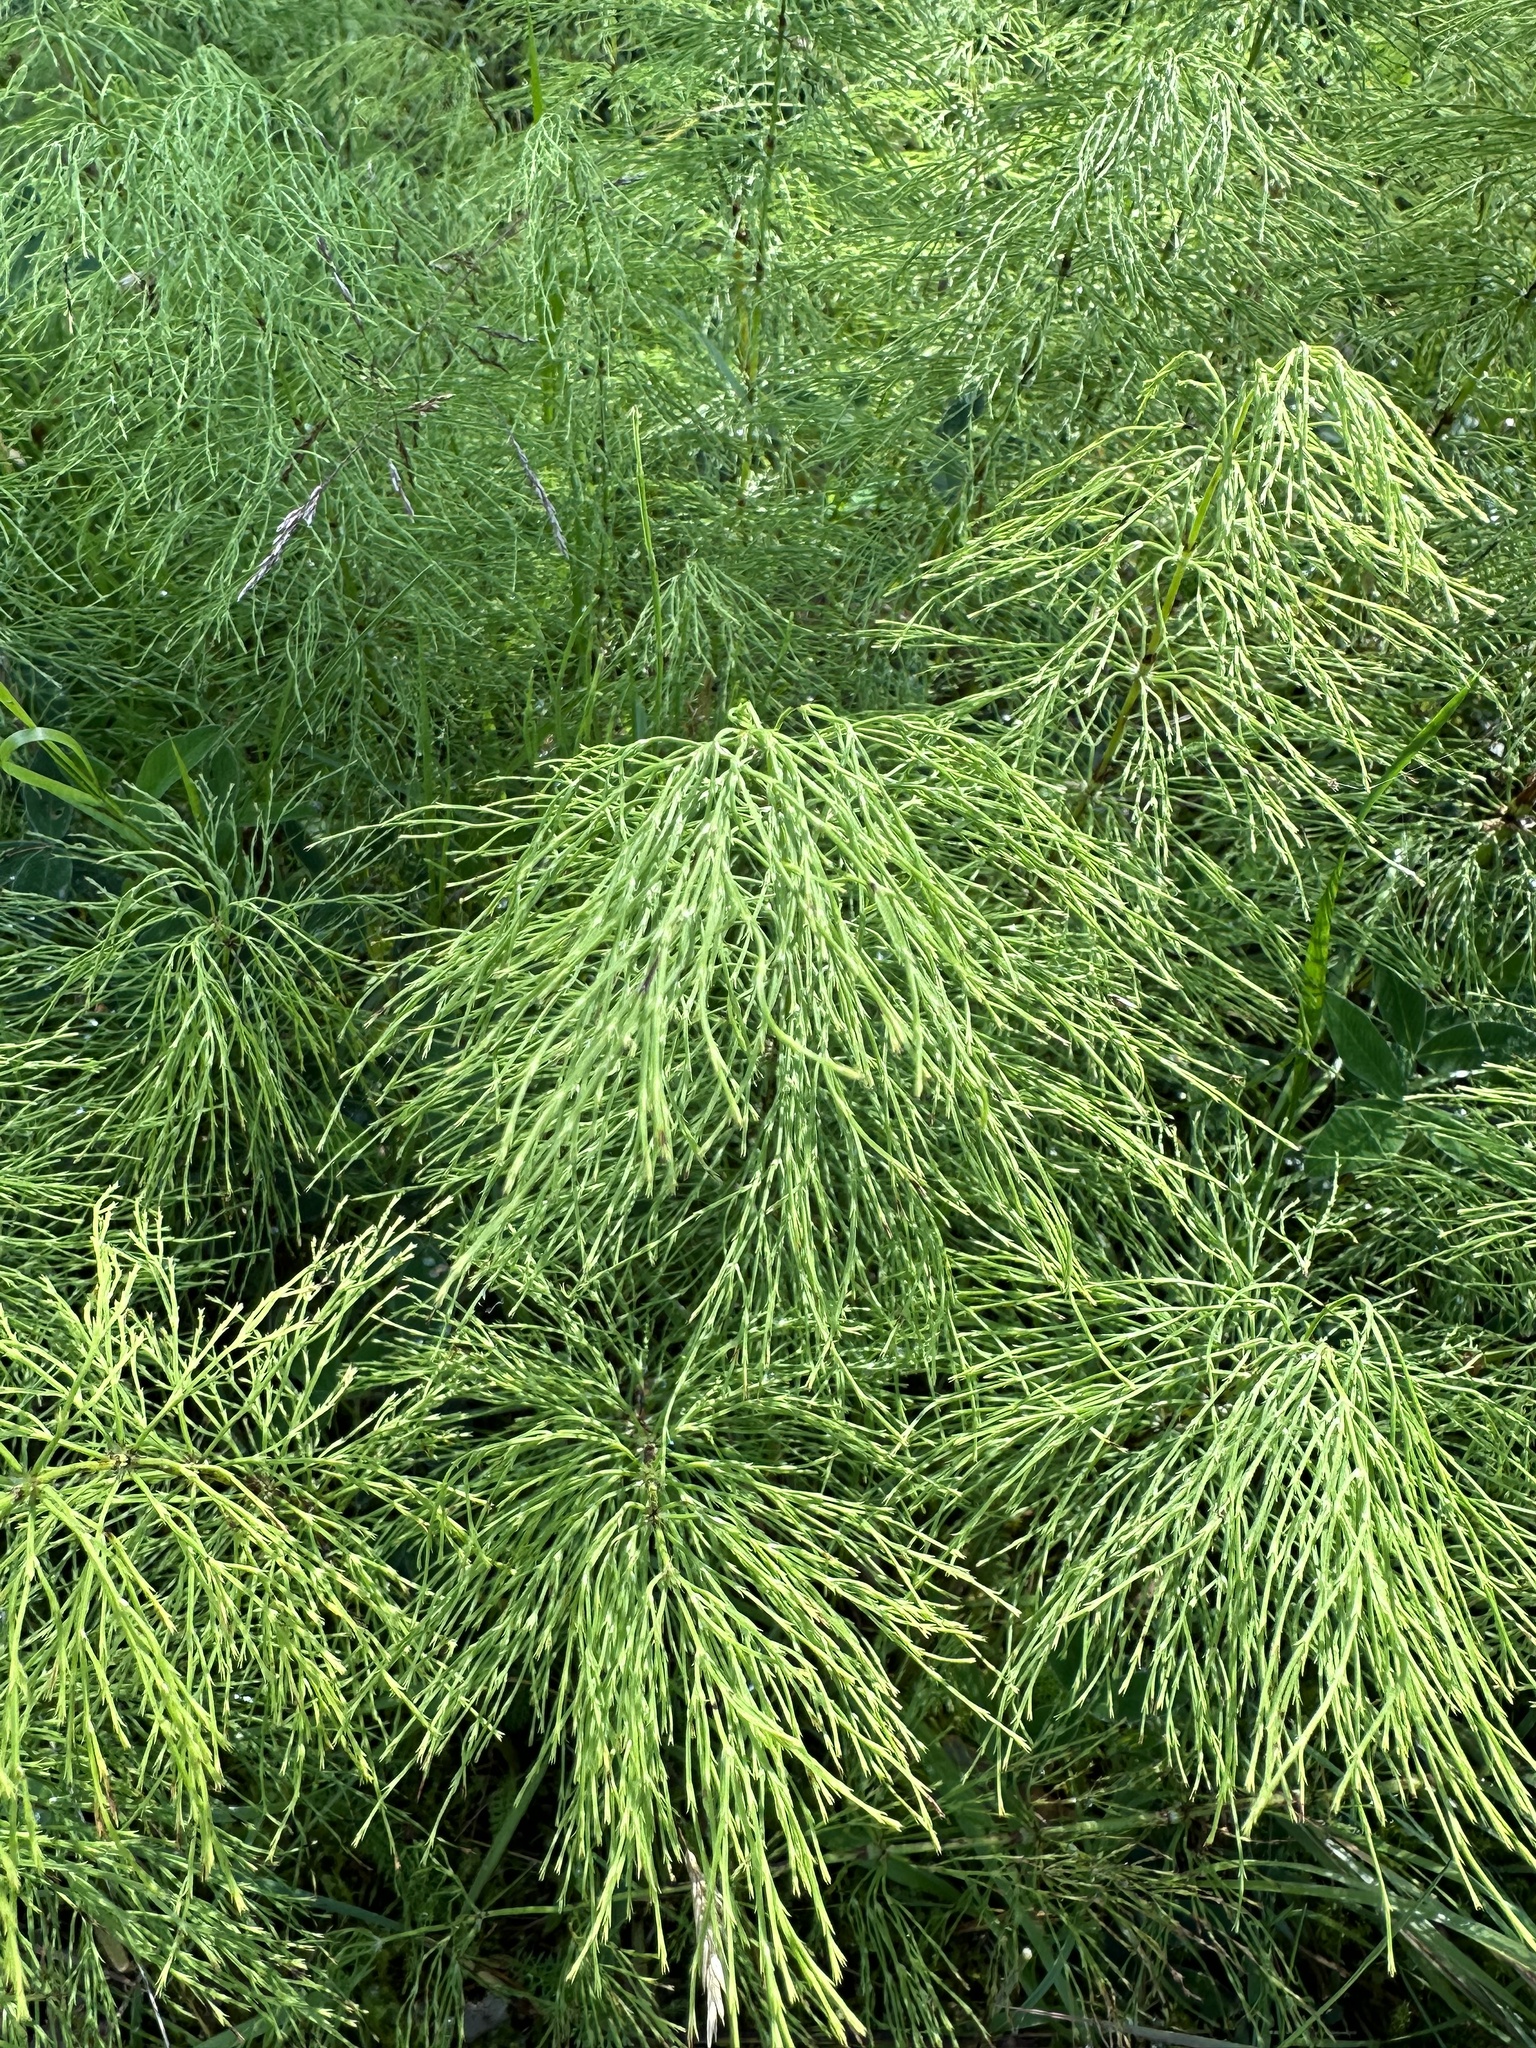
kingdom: Plantae
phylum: Tracheophyta
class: Polypodiopsida
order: Equisetales
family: Equisetaceae
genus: Equisetum
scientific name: Equisetum sylvaticum
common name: Wood horsetail
